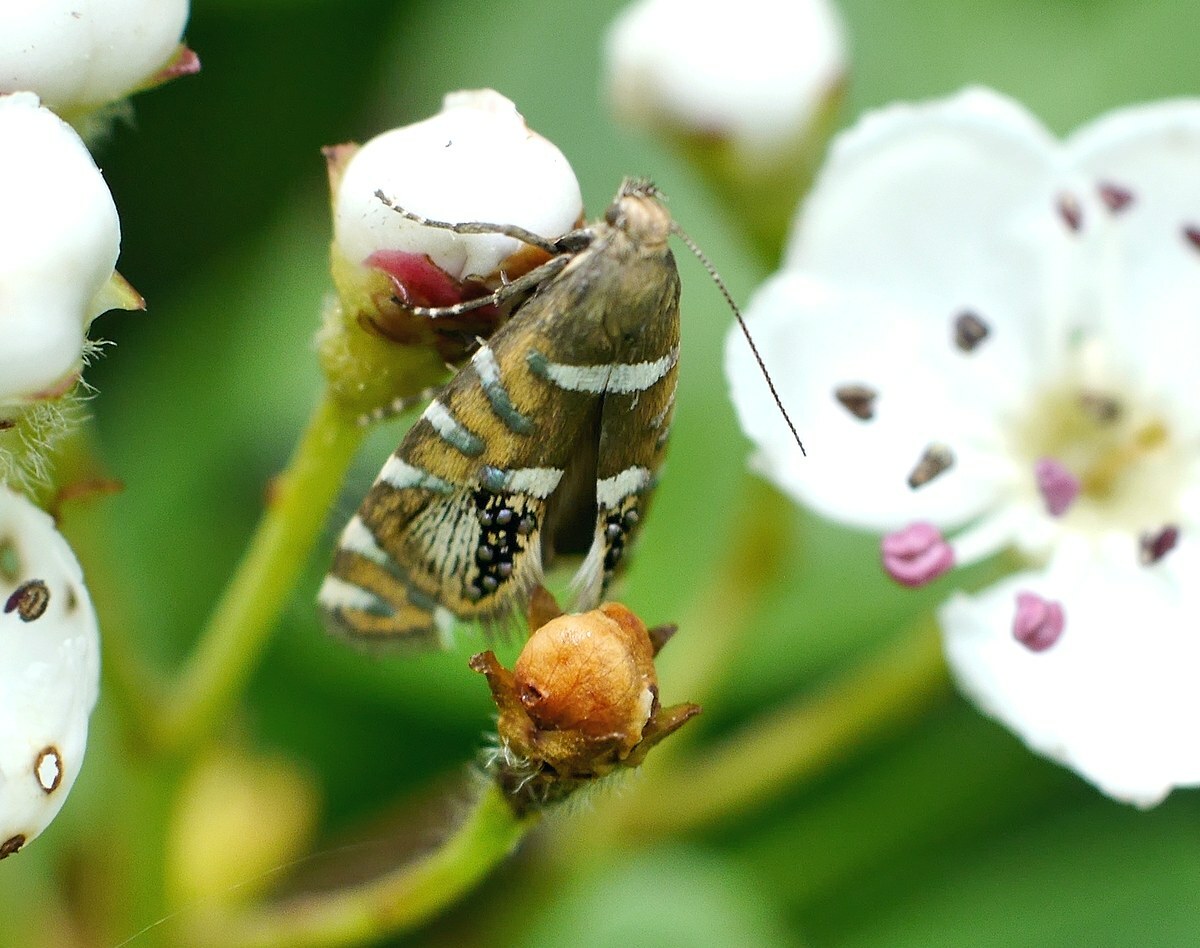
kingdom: Animalia
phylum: Arthropoda
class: Insecta
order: Lepidoptera
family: Glyphipterigidae
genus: Glyphipterix
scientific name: Glyphipterix loricatella
